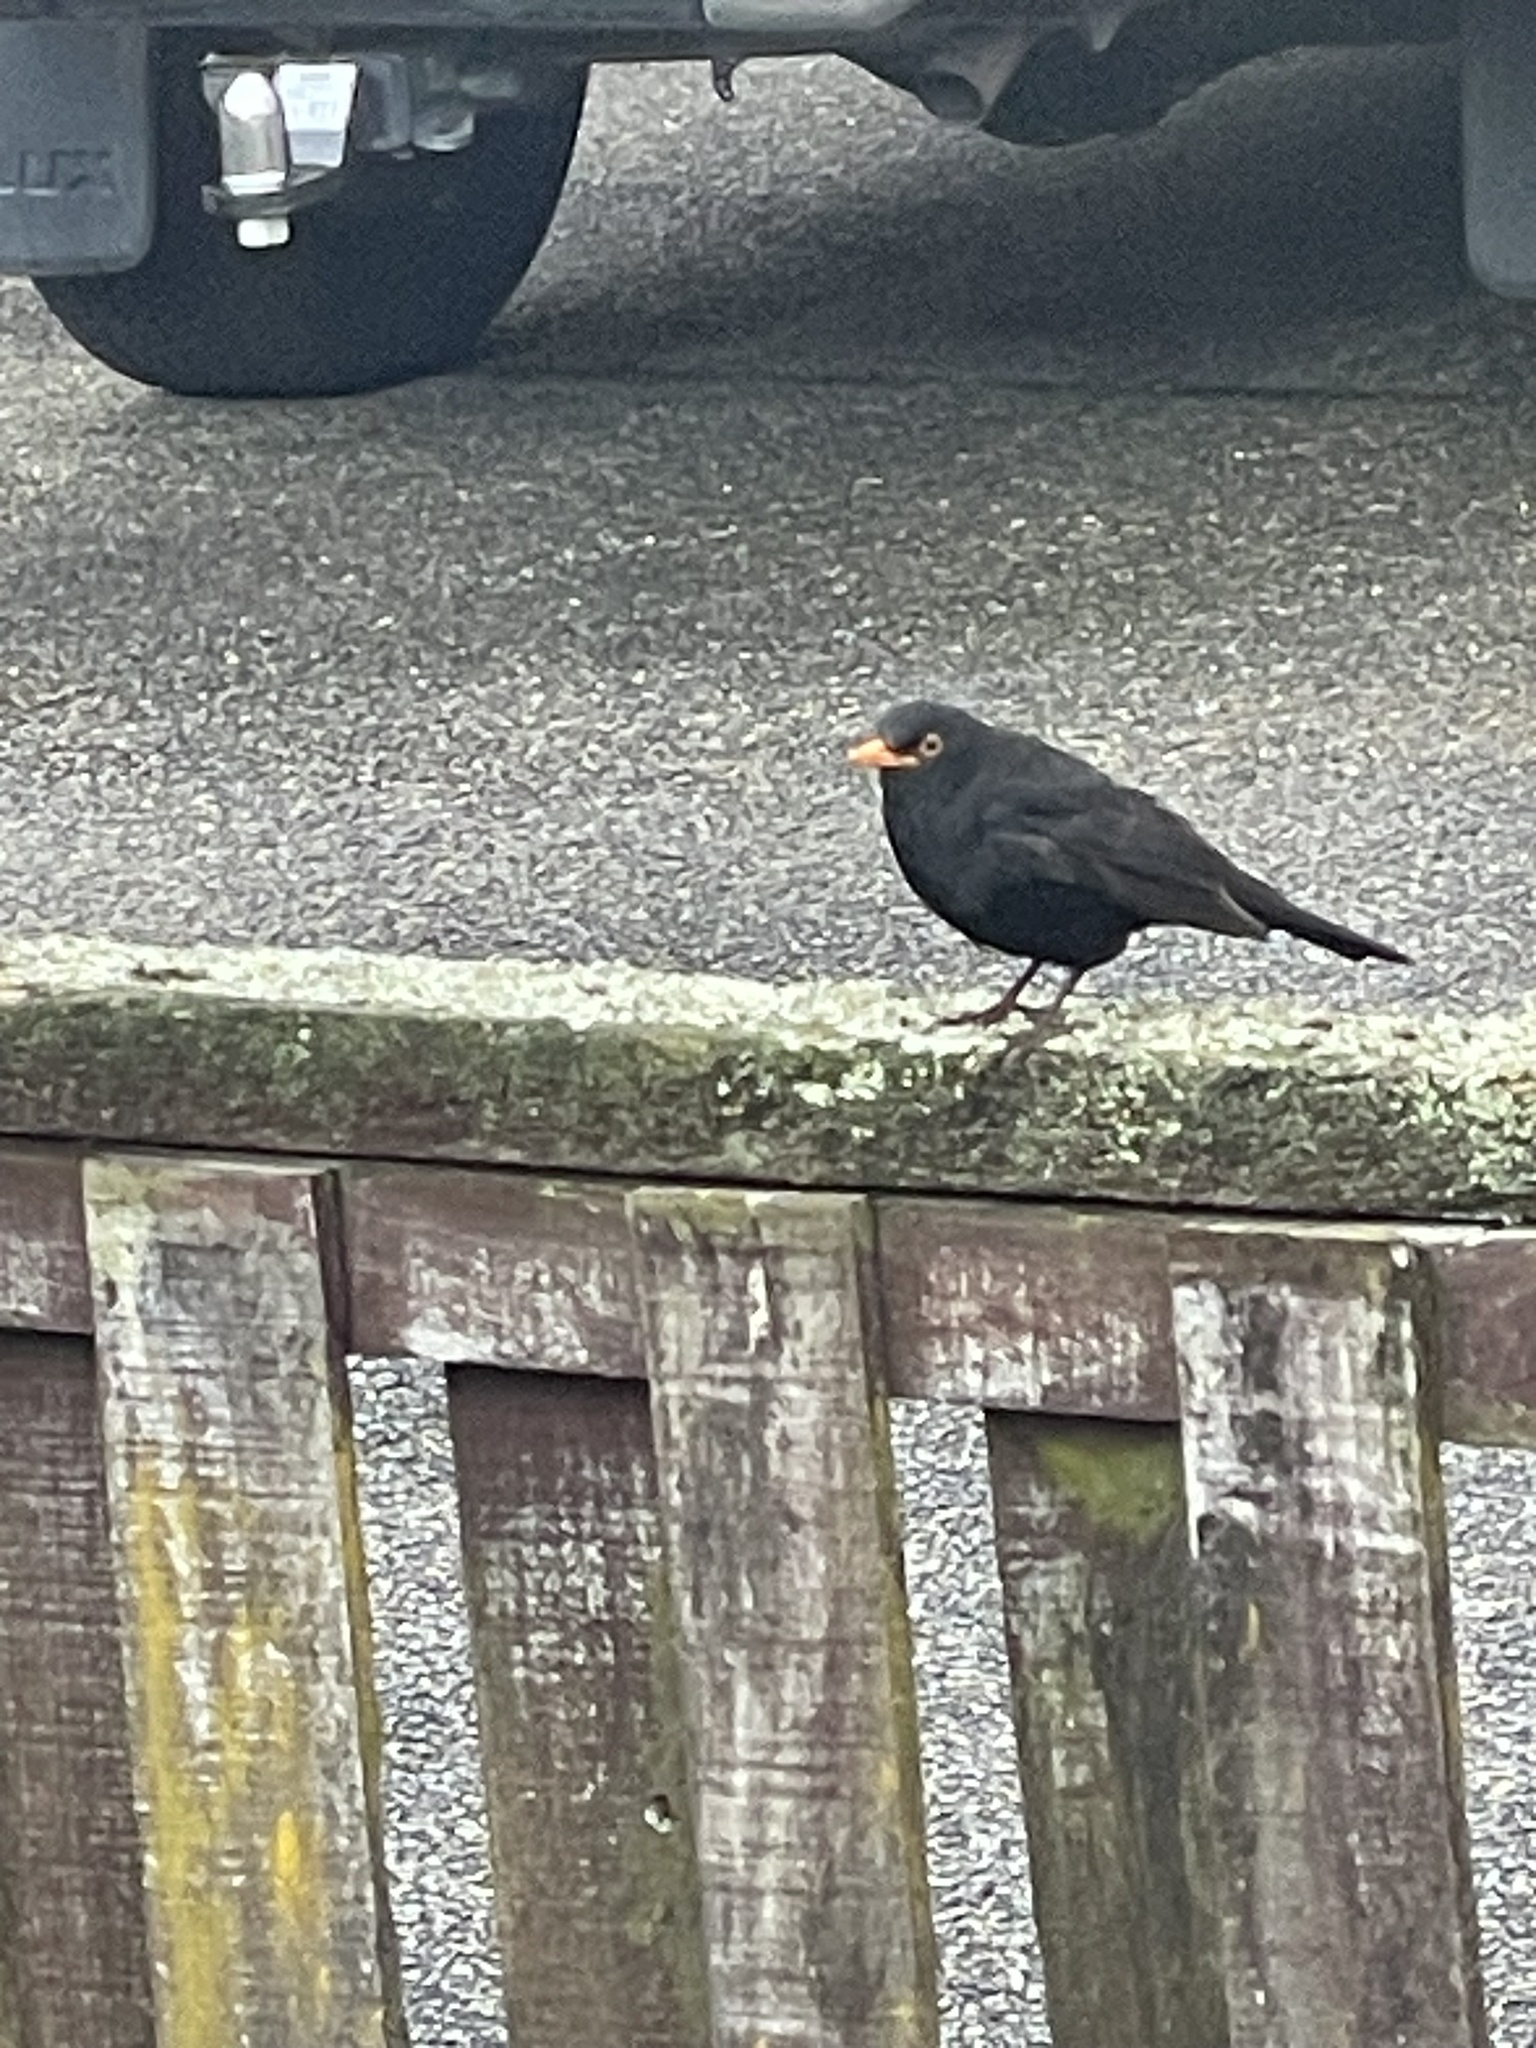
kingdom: Animalia
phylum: Chordata
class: Aves
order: Passeriformes
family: Turdidae
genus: Turdus
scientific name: Turdus merula
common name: Common blackbird
